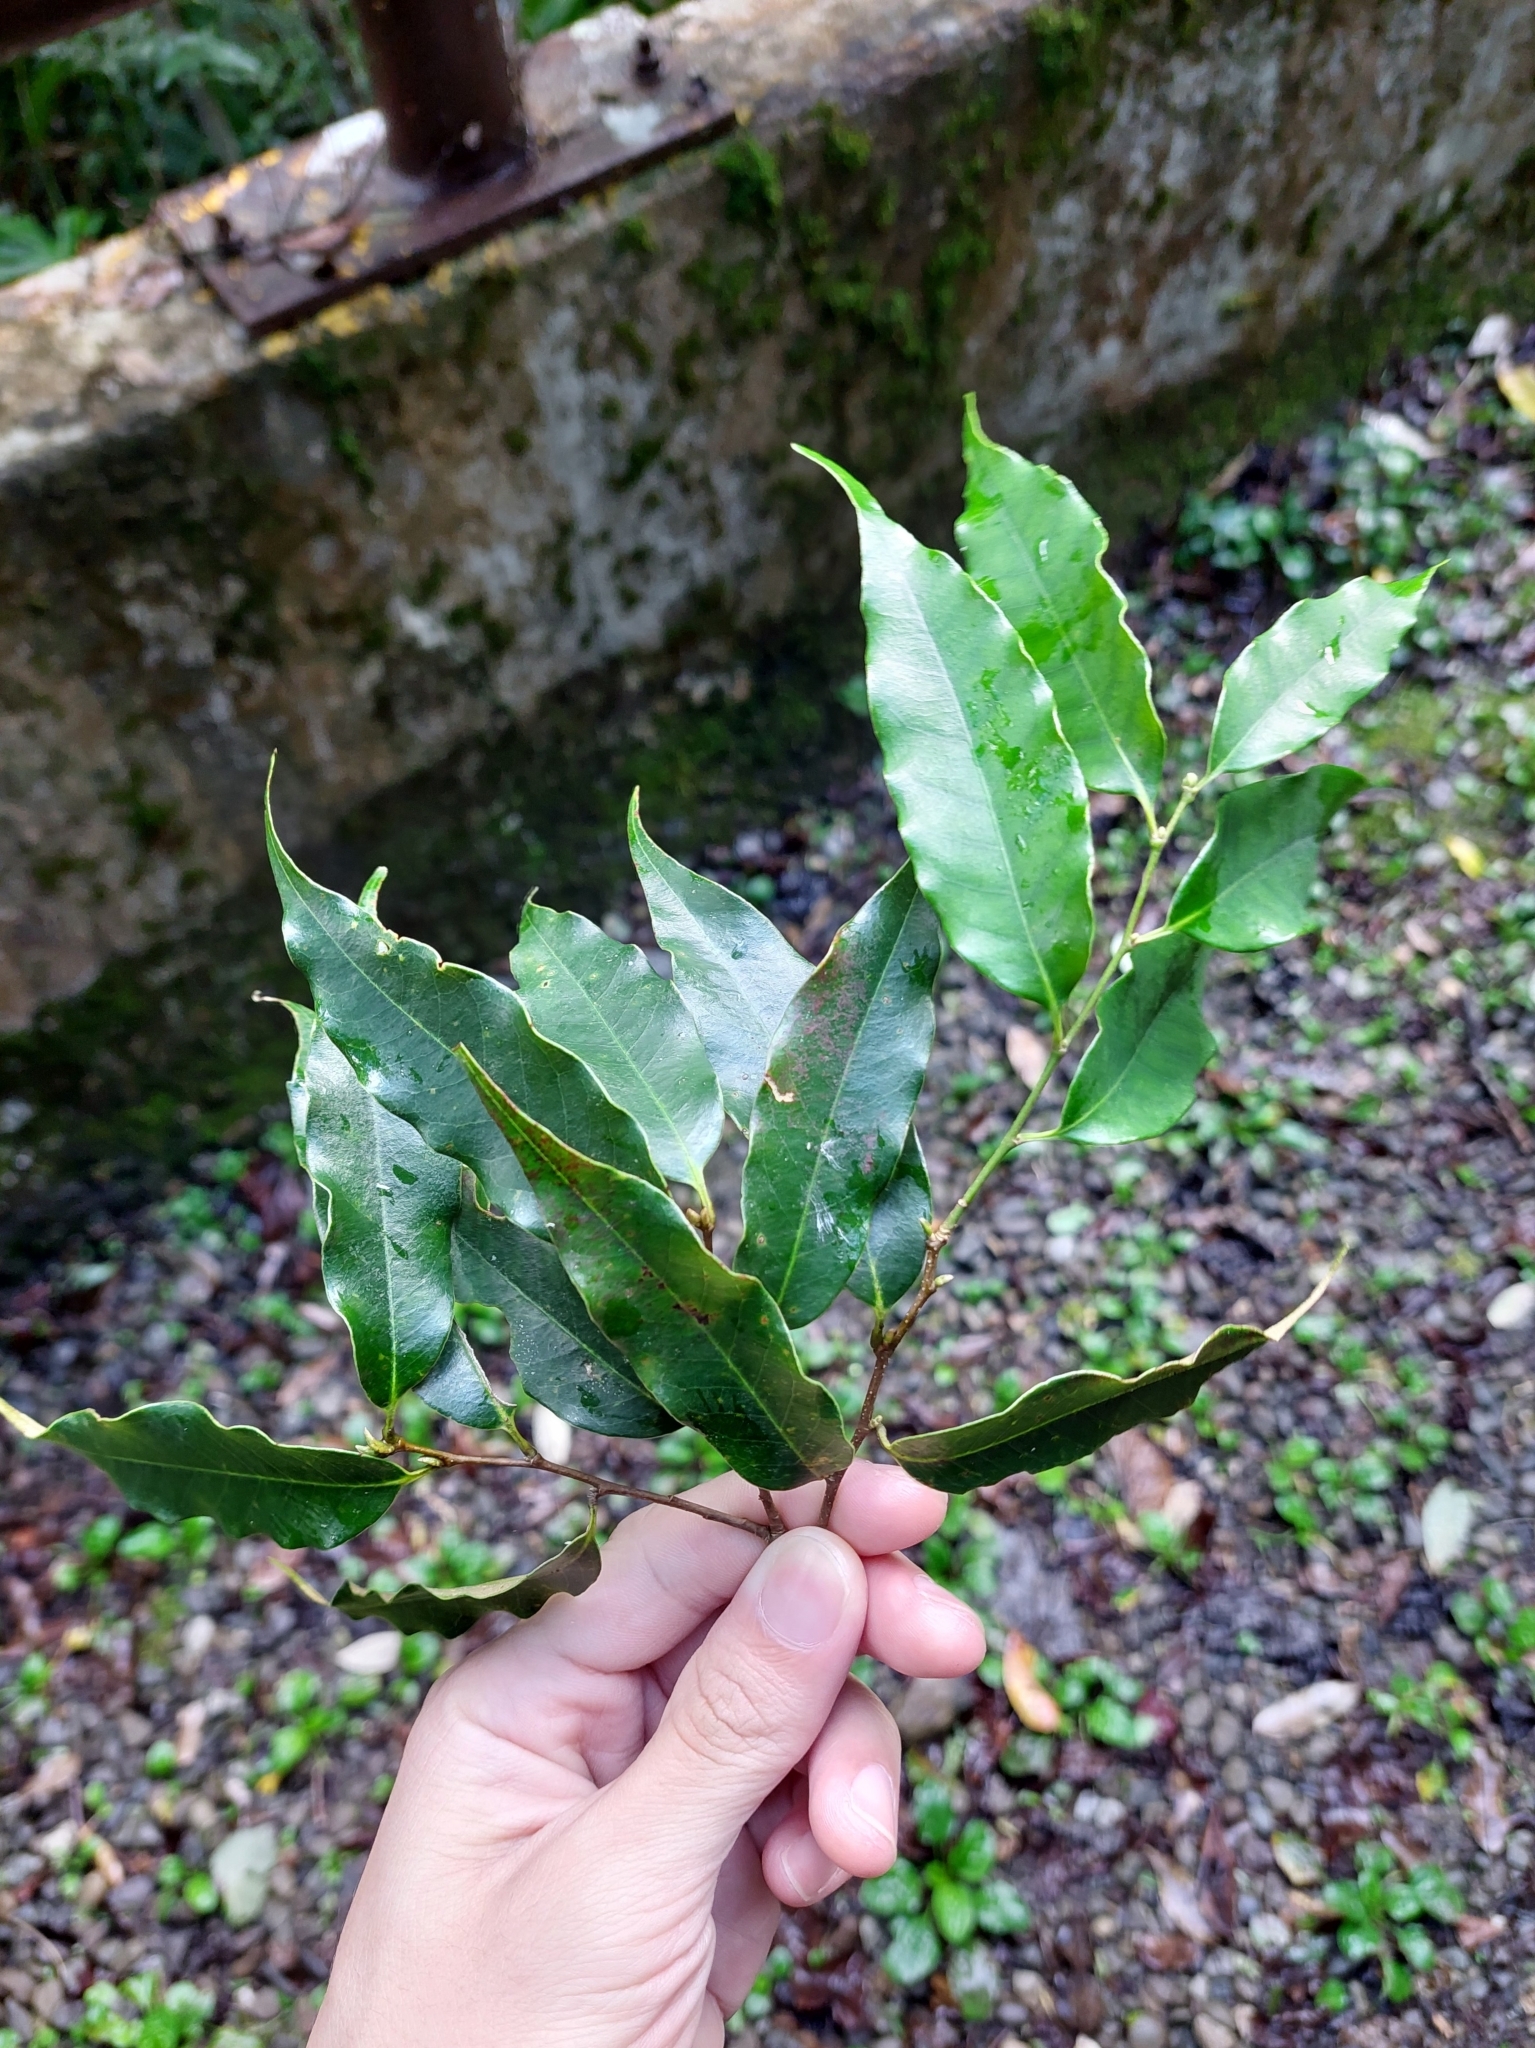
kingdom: Plantae
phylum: Tracheophyta
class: Magnoliopsida
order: Fagales
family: Fagaceae
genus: Castanopsis
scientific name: Castanopsis carlesii
